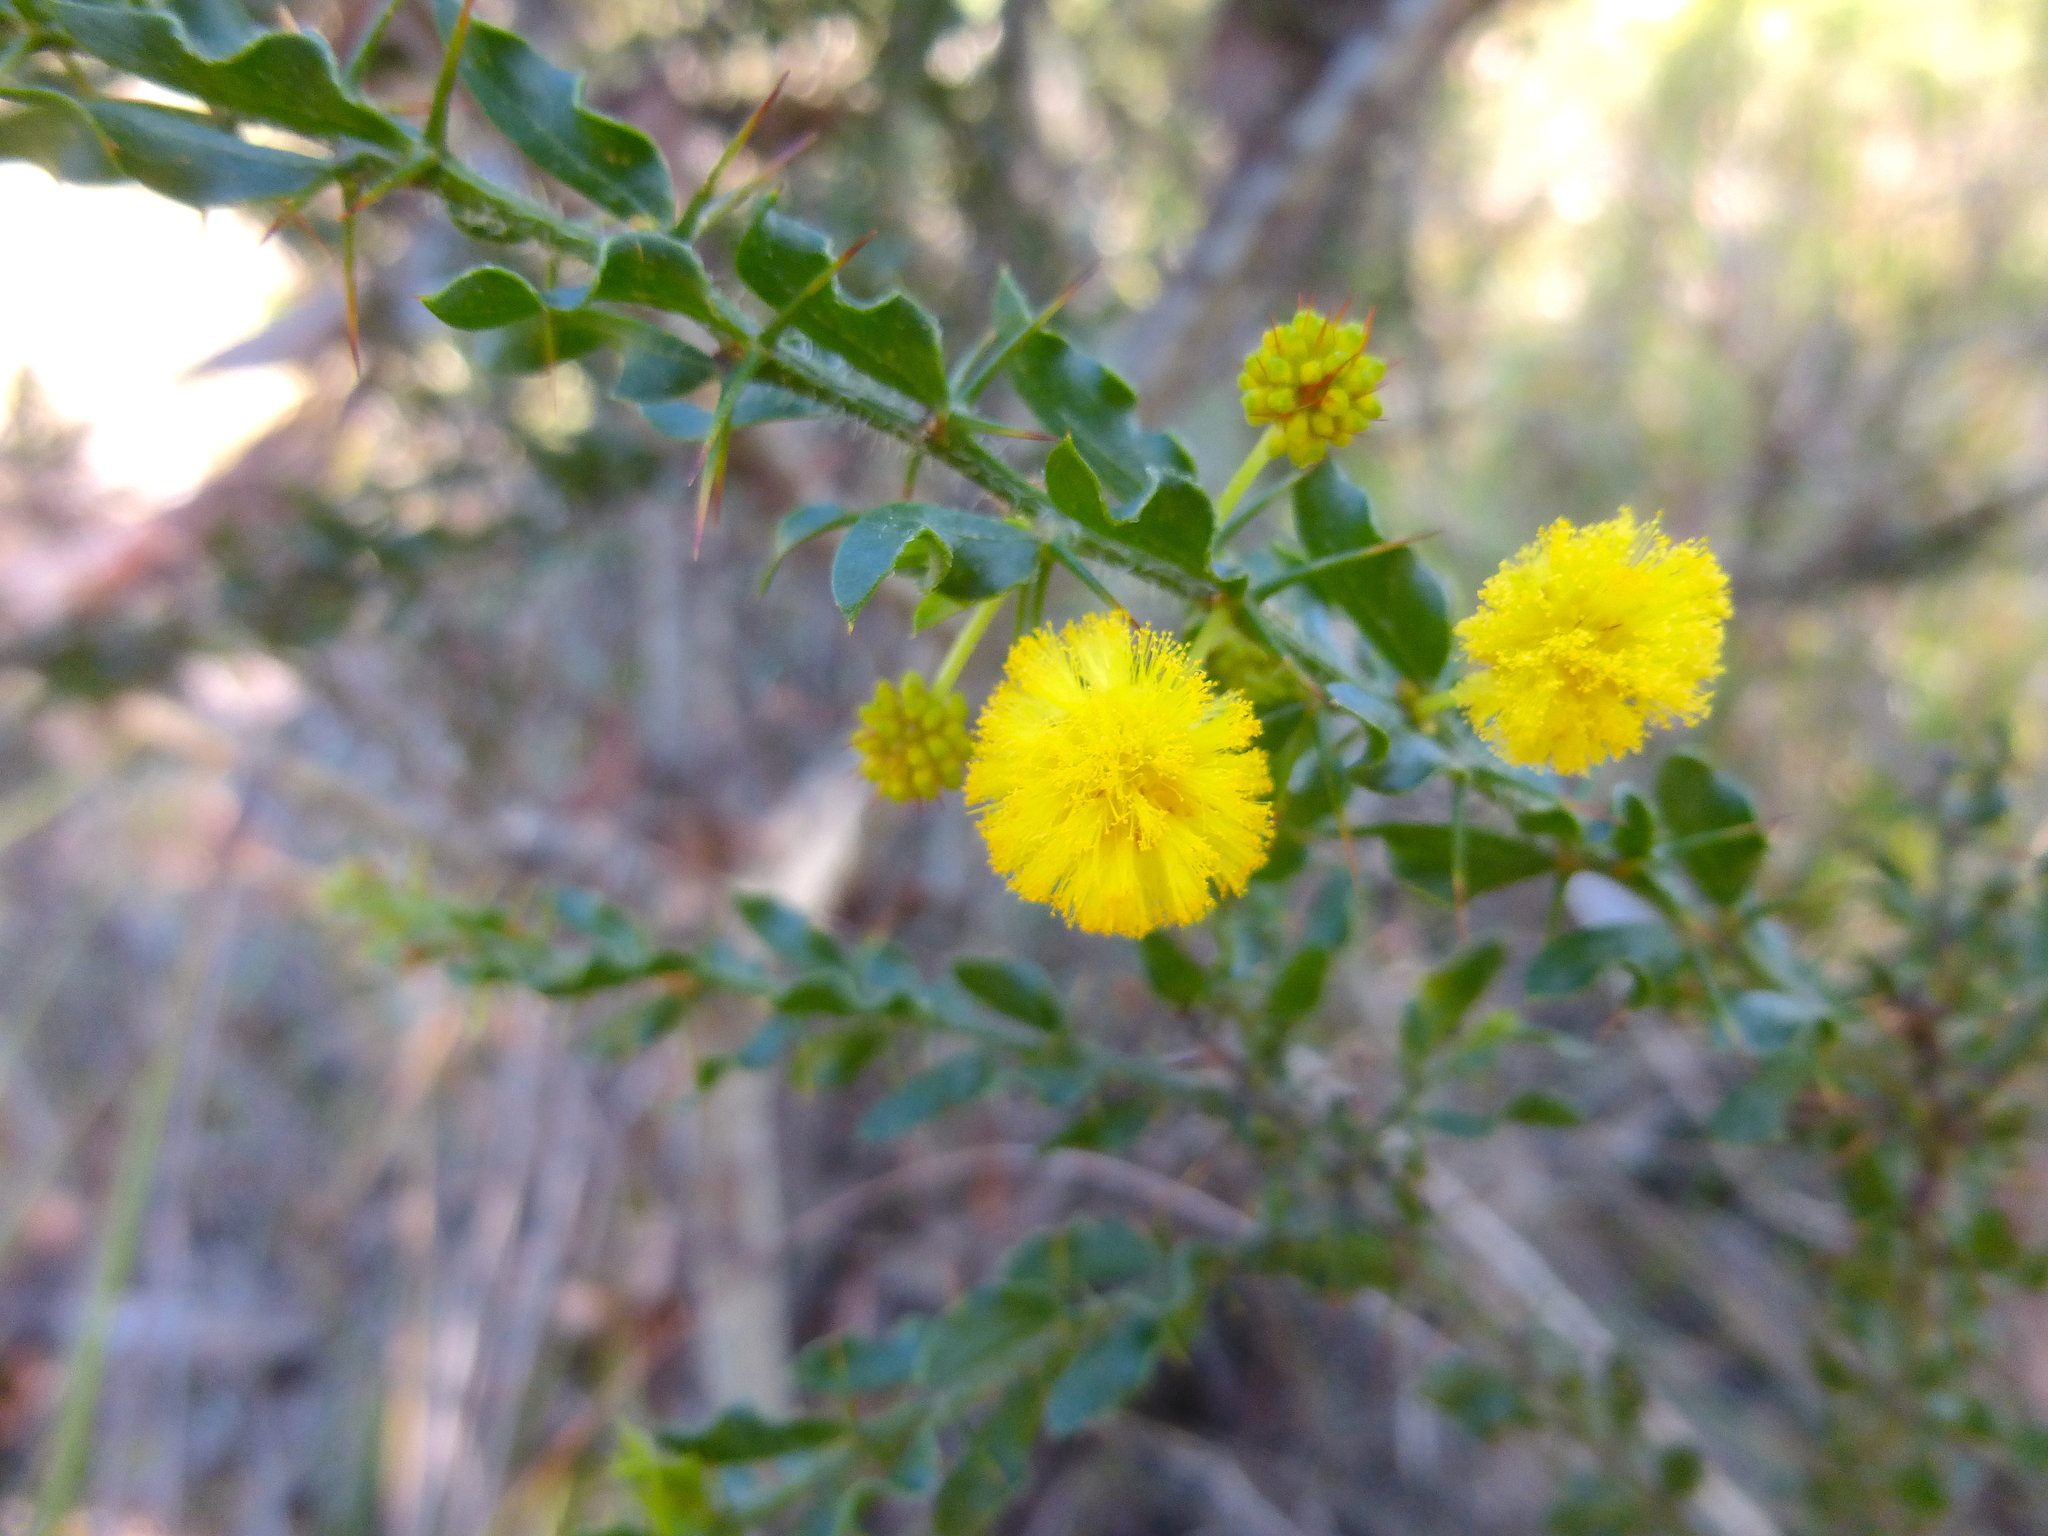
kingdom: Plantae
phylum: Tracheophyta
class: Magnoliopsida
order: Fabales
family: Fabaceae
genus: Acacia
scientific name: Acacia paradoxa
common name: Paradox acacia
